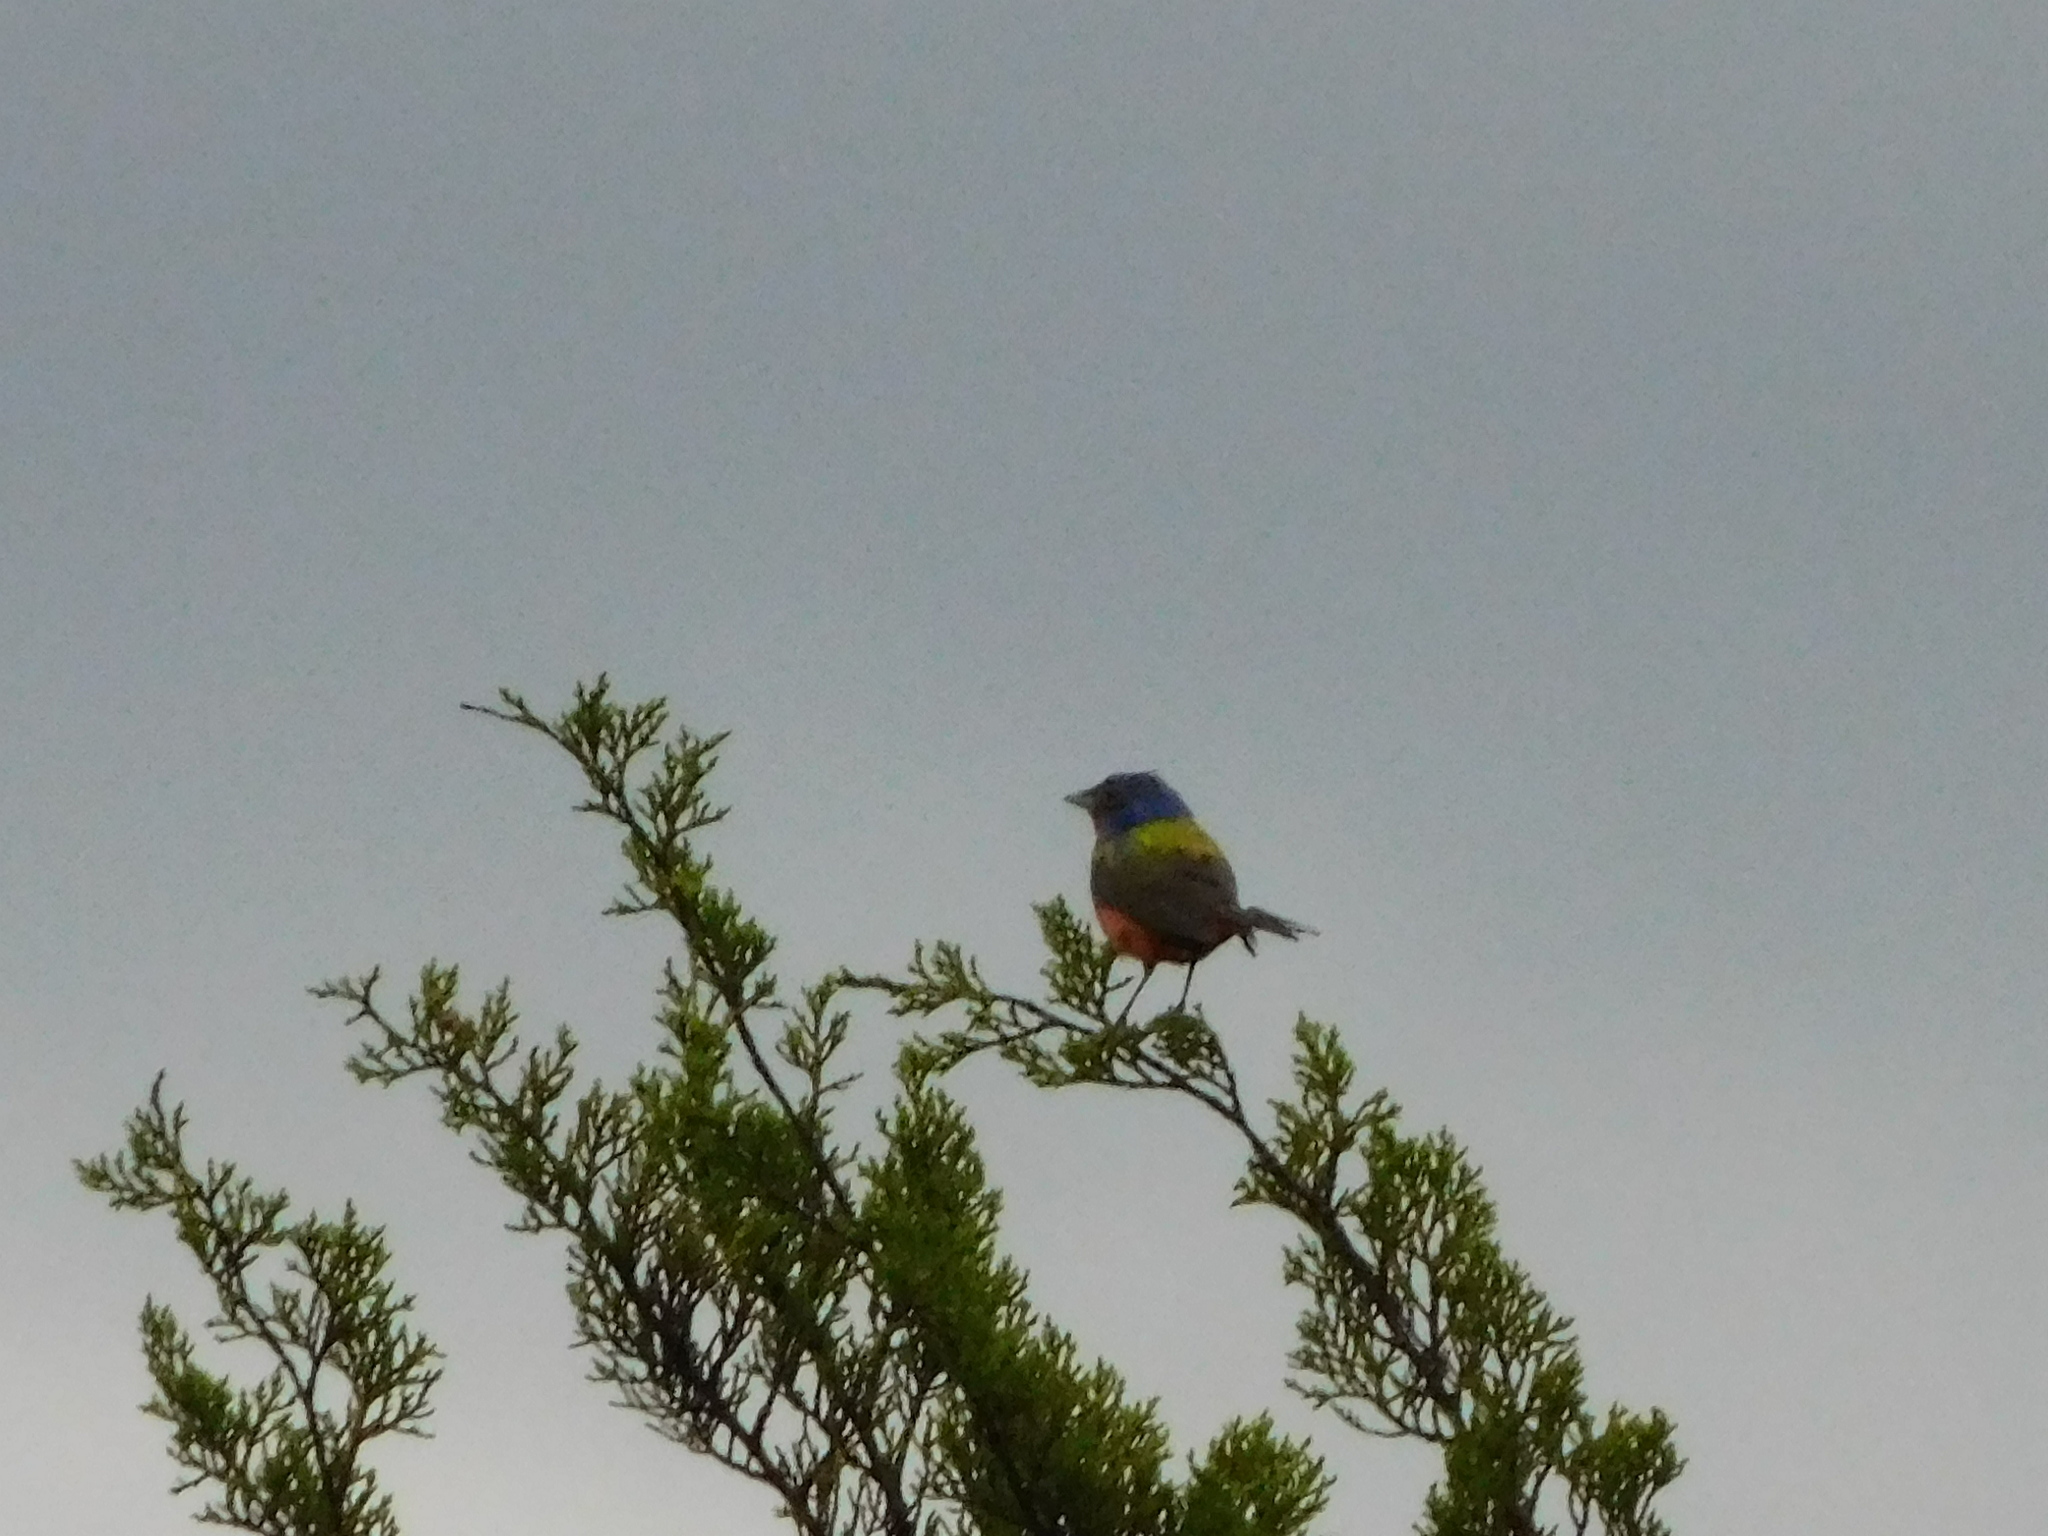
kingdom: Animalia
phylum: Chordata
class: Aves
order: Passeriformes
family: Cardinalidae
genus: Passerina
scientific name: Passerina ciris
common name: Painted bunting
